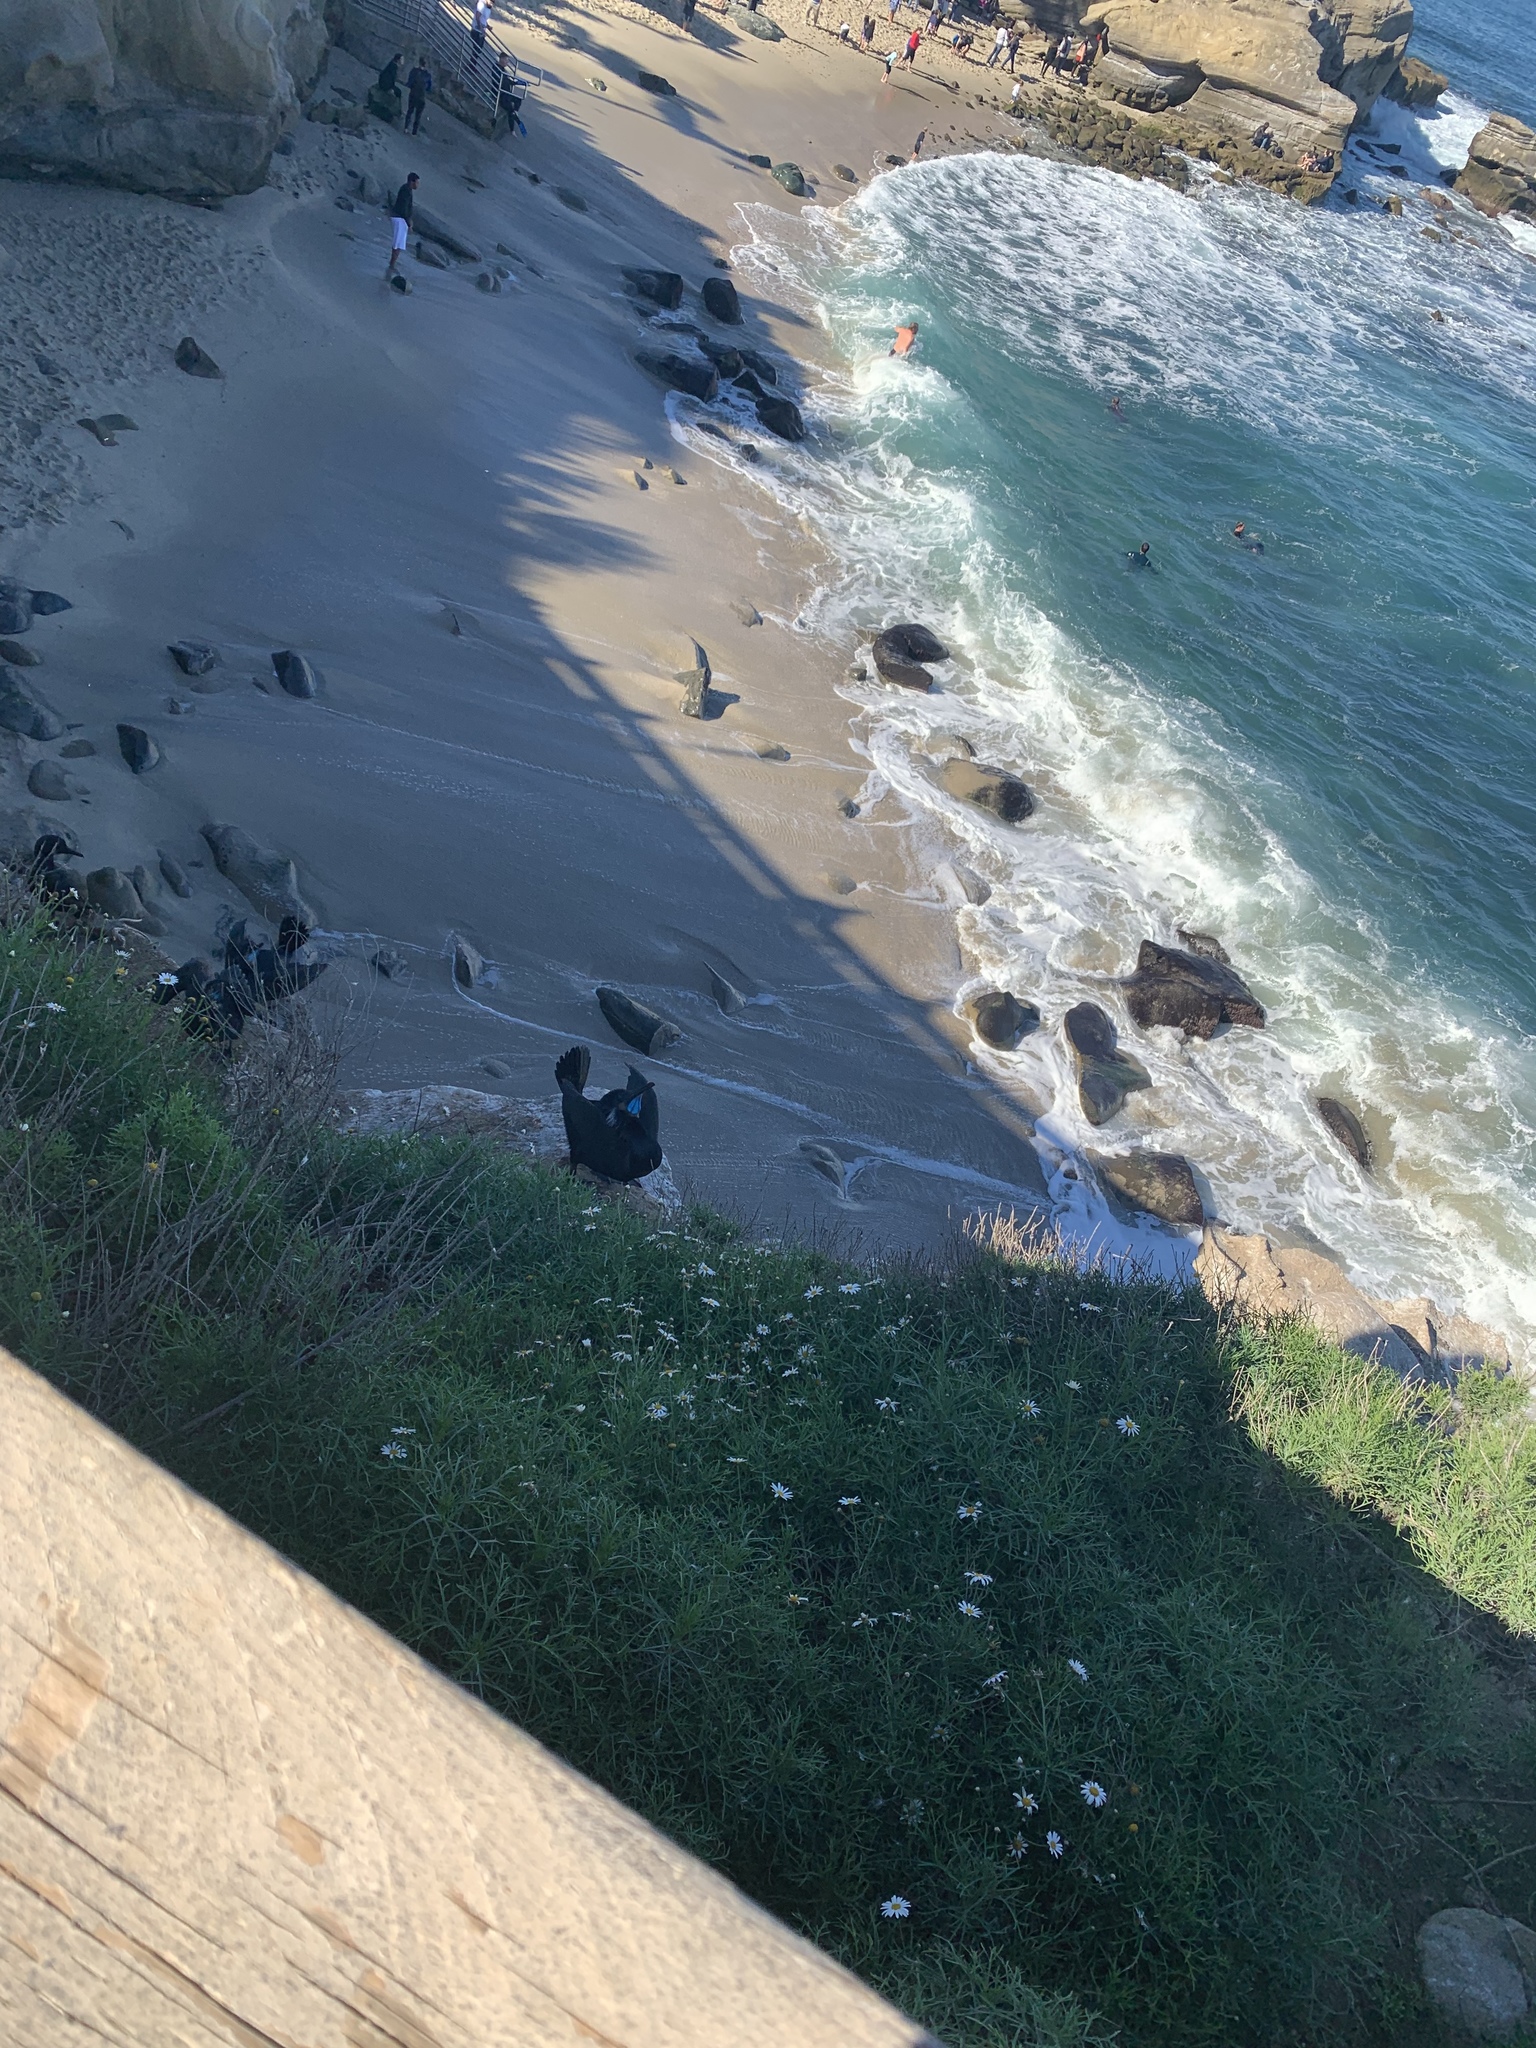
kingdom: Animalia
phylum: Chordata
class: Aves
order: Suliformes
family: Phalacrocoracidae
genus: Urile
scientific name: Urile penicillatus
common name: Brandt's cormorant
